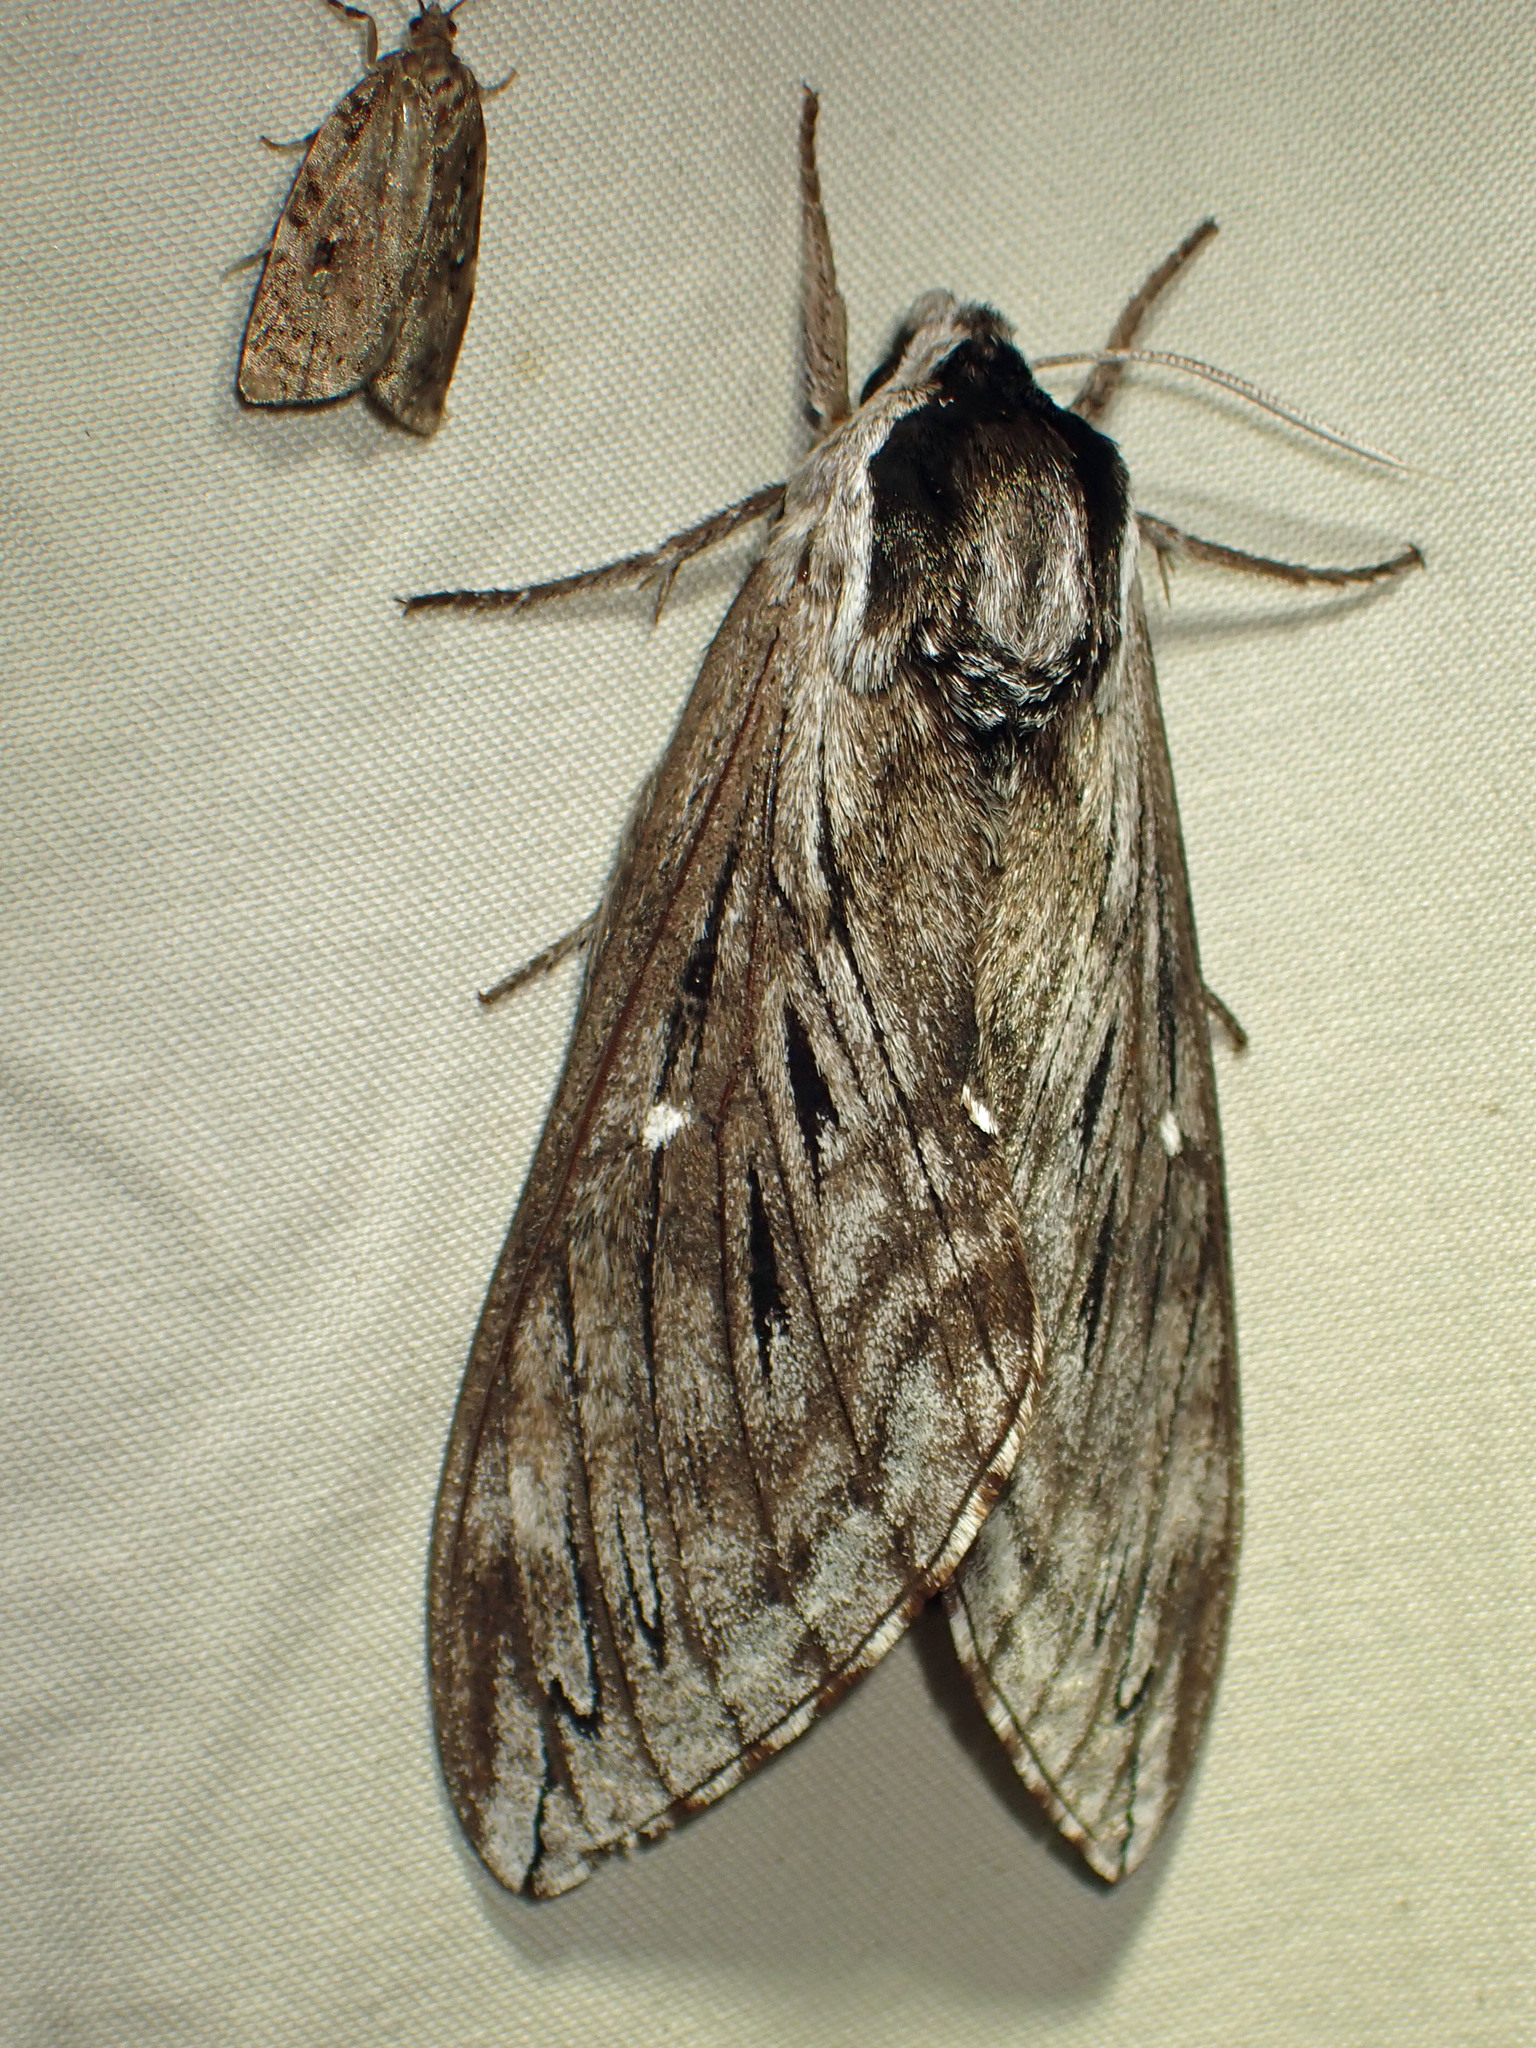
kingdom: Animalia
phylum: Arthropoda
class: Insecta
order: Lepidoptera
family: Sphingidae
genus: Sphinx
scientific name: Sphinx poecila
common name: Northern apple sphinx
